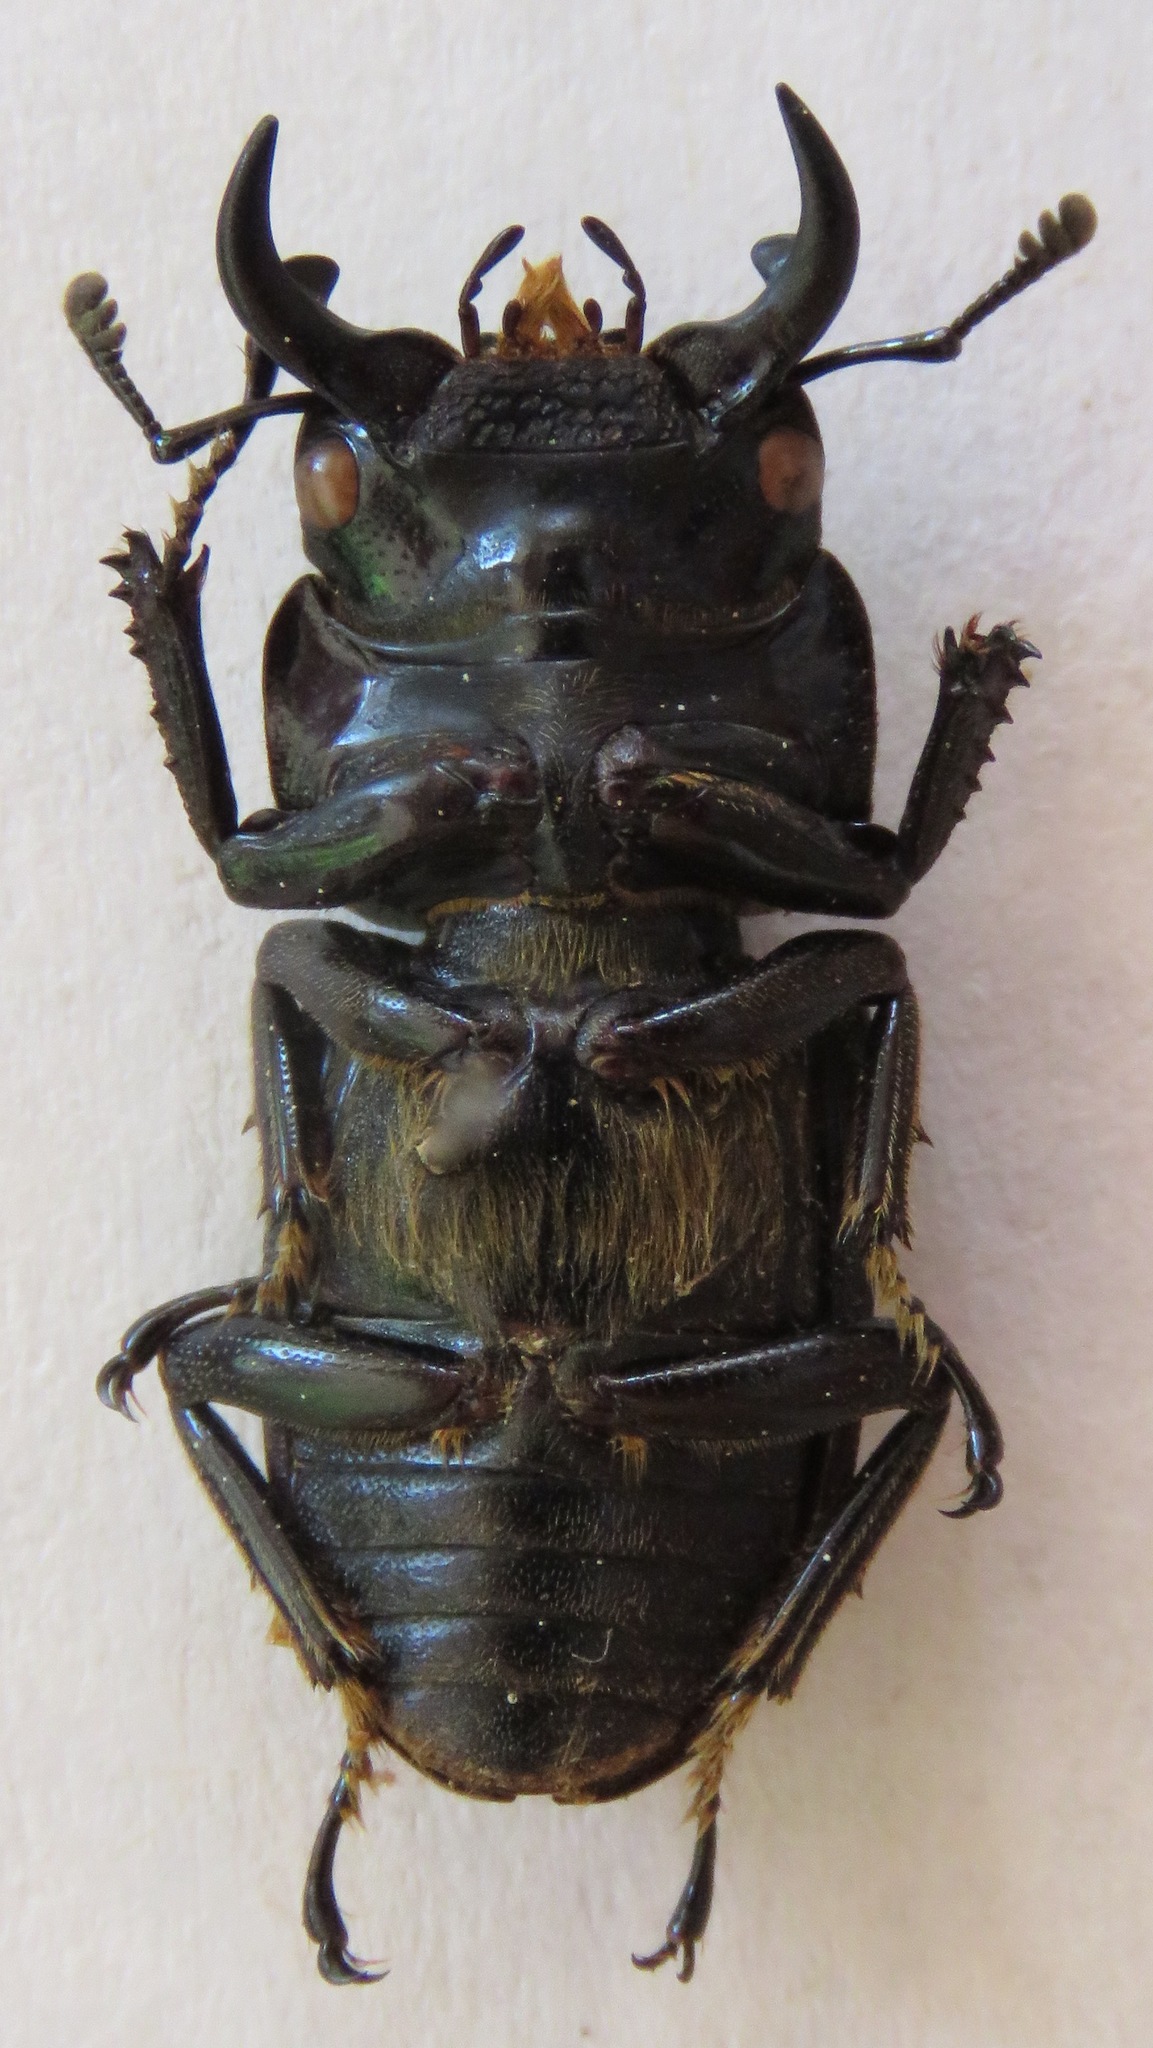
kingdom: Animalia
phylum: Arthropoda
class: Insecta
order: Coleoptera
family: Lucanidae
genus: Dorcus
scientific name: Dorcus cervulus
